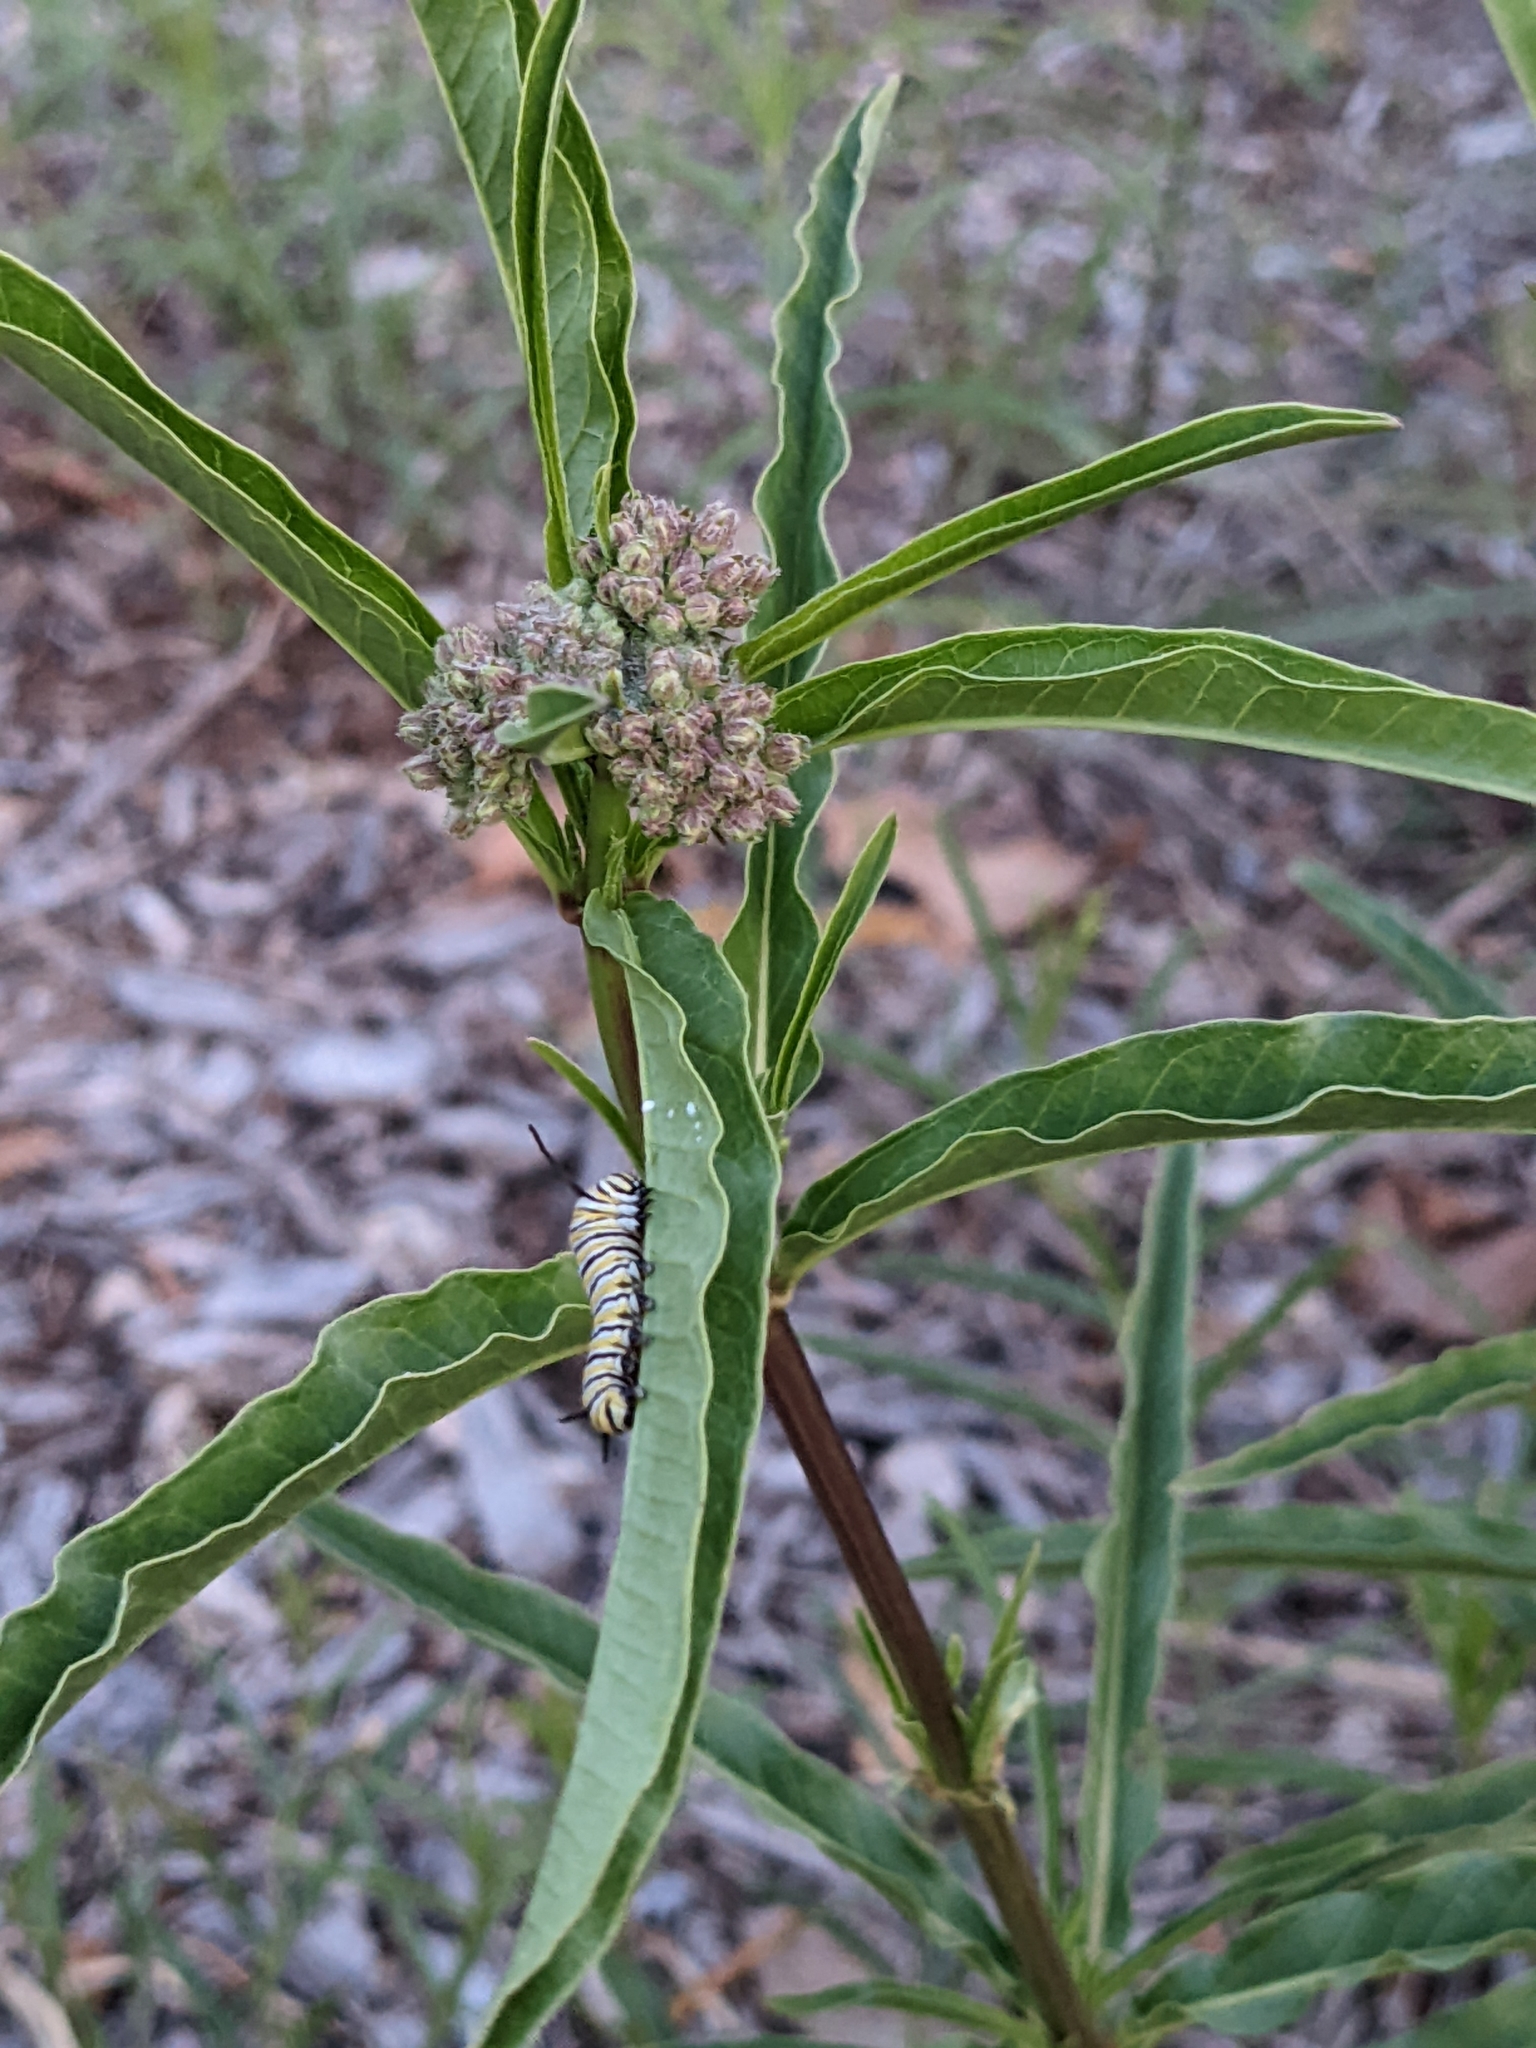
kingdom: Plantae
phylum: Tracheophyta
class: Magnoliopsida
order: Gentianales
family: Apocynaceae
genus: Asclepias
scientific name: Asclepias fascicularis
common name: Mexican milkweed
